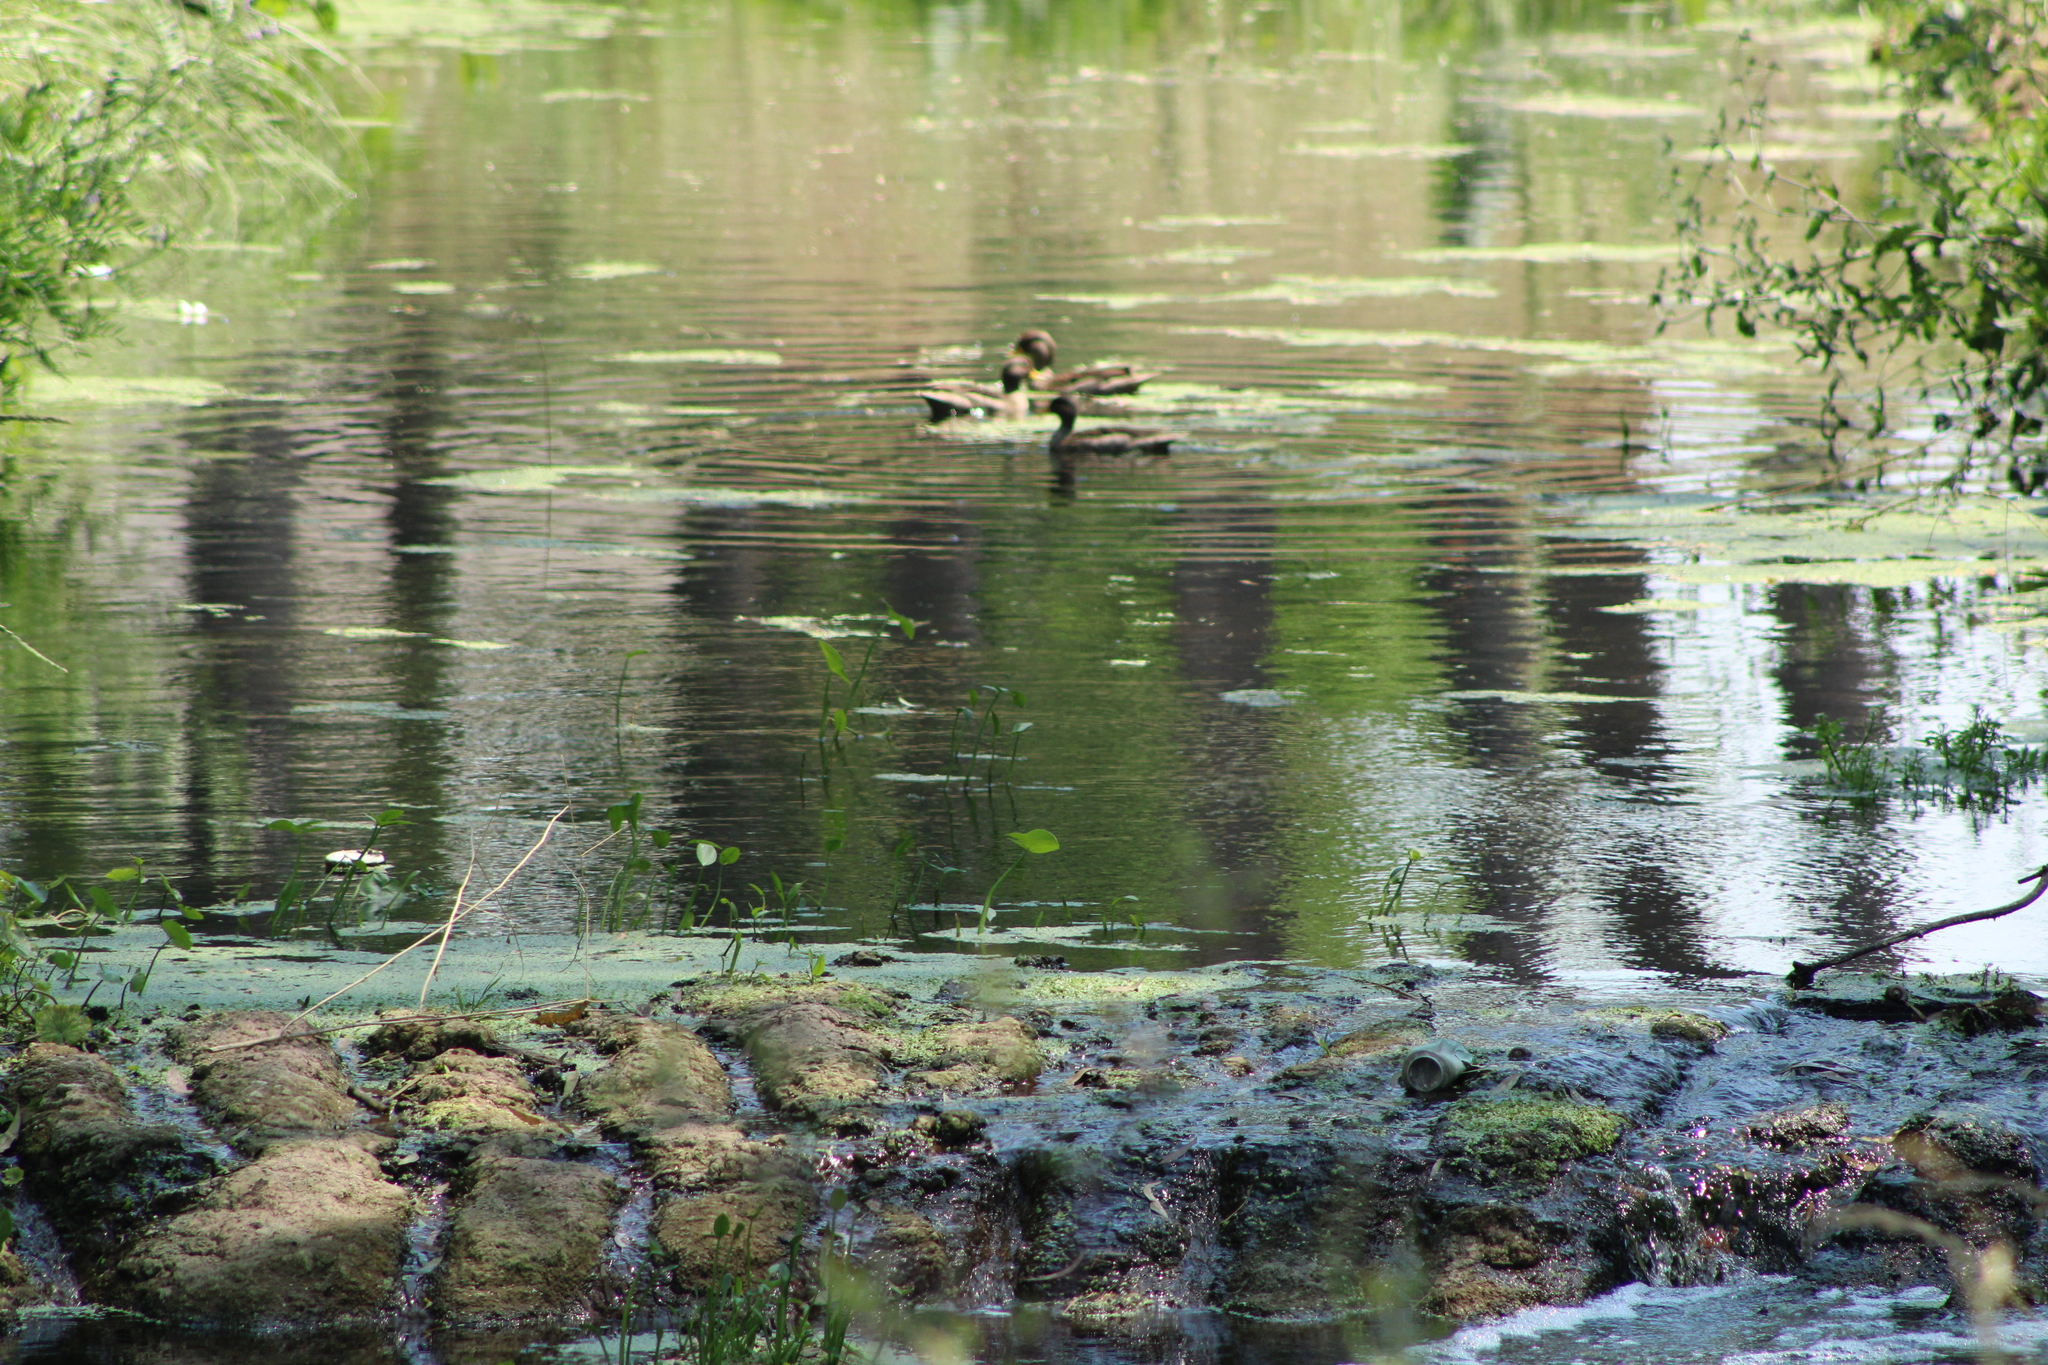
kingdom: Animalia
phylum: Chordata
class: Aves
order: Anseriformes
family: Anatidae
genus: Anas
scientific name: Anas flavirostris
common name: Yellow-billed teal
